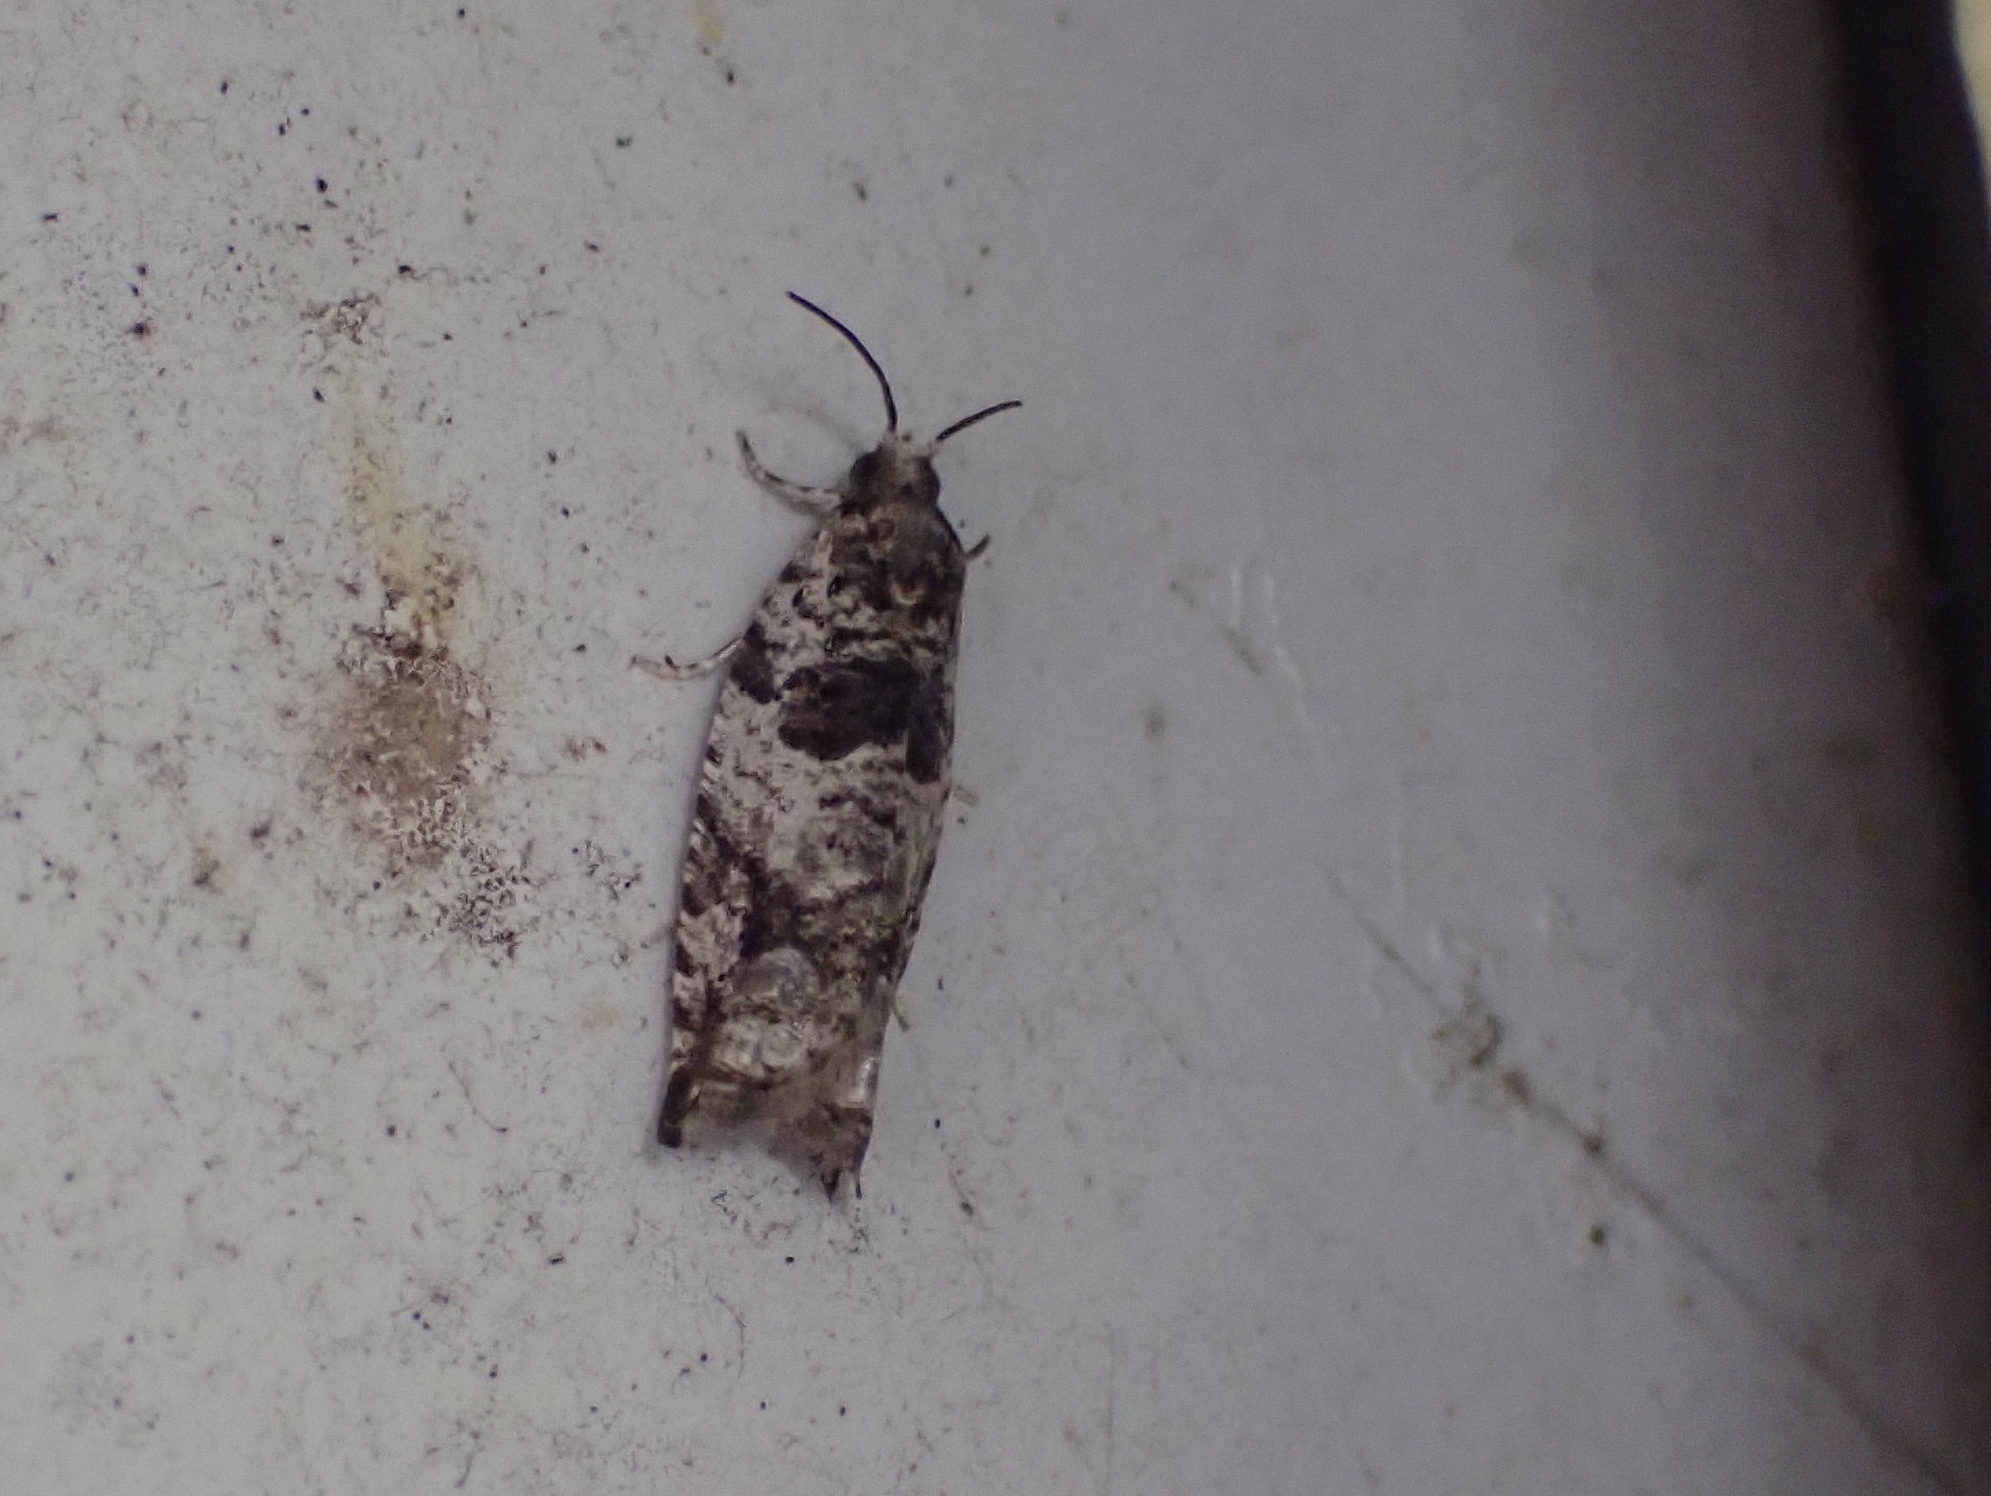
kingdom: Animalia
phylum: Arthropoda
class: Insecta
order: Lepidoptera
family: Tortricidae
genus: Rhopobota
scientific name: Rhopobota dietziana
